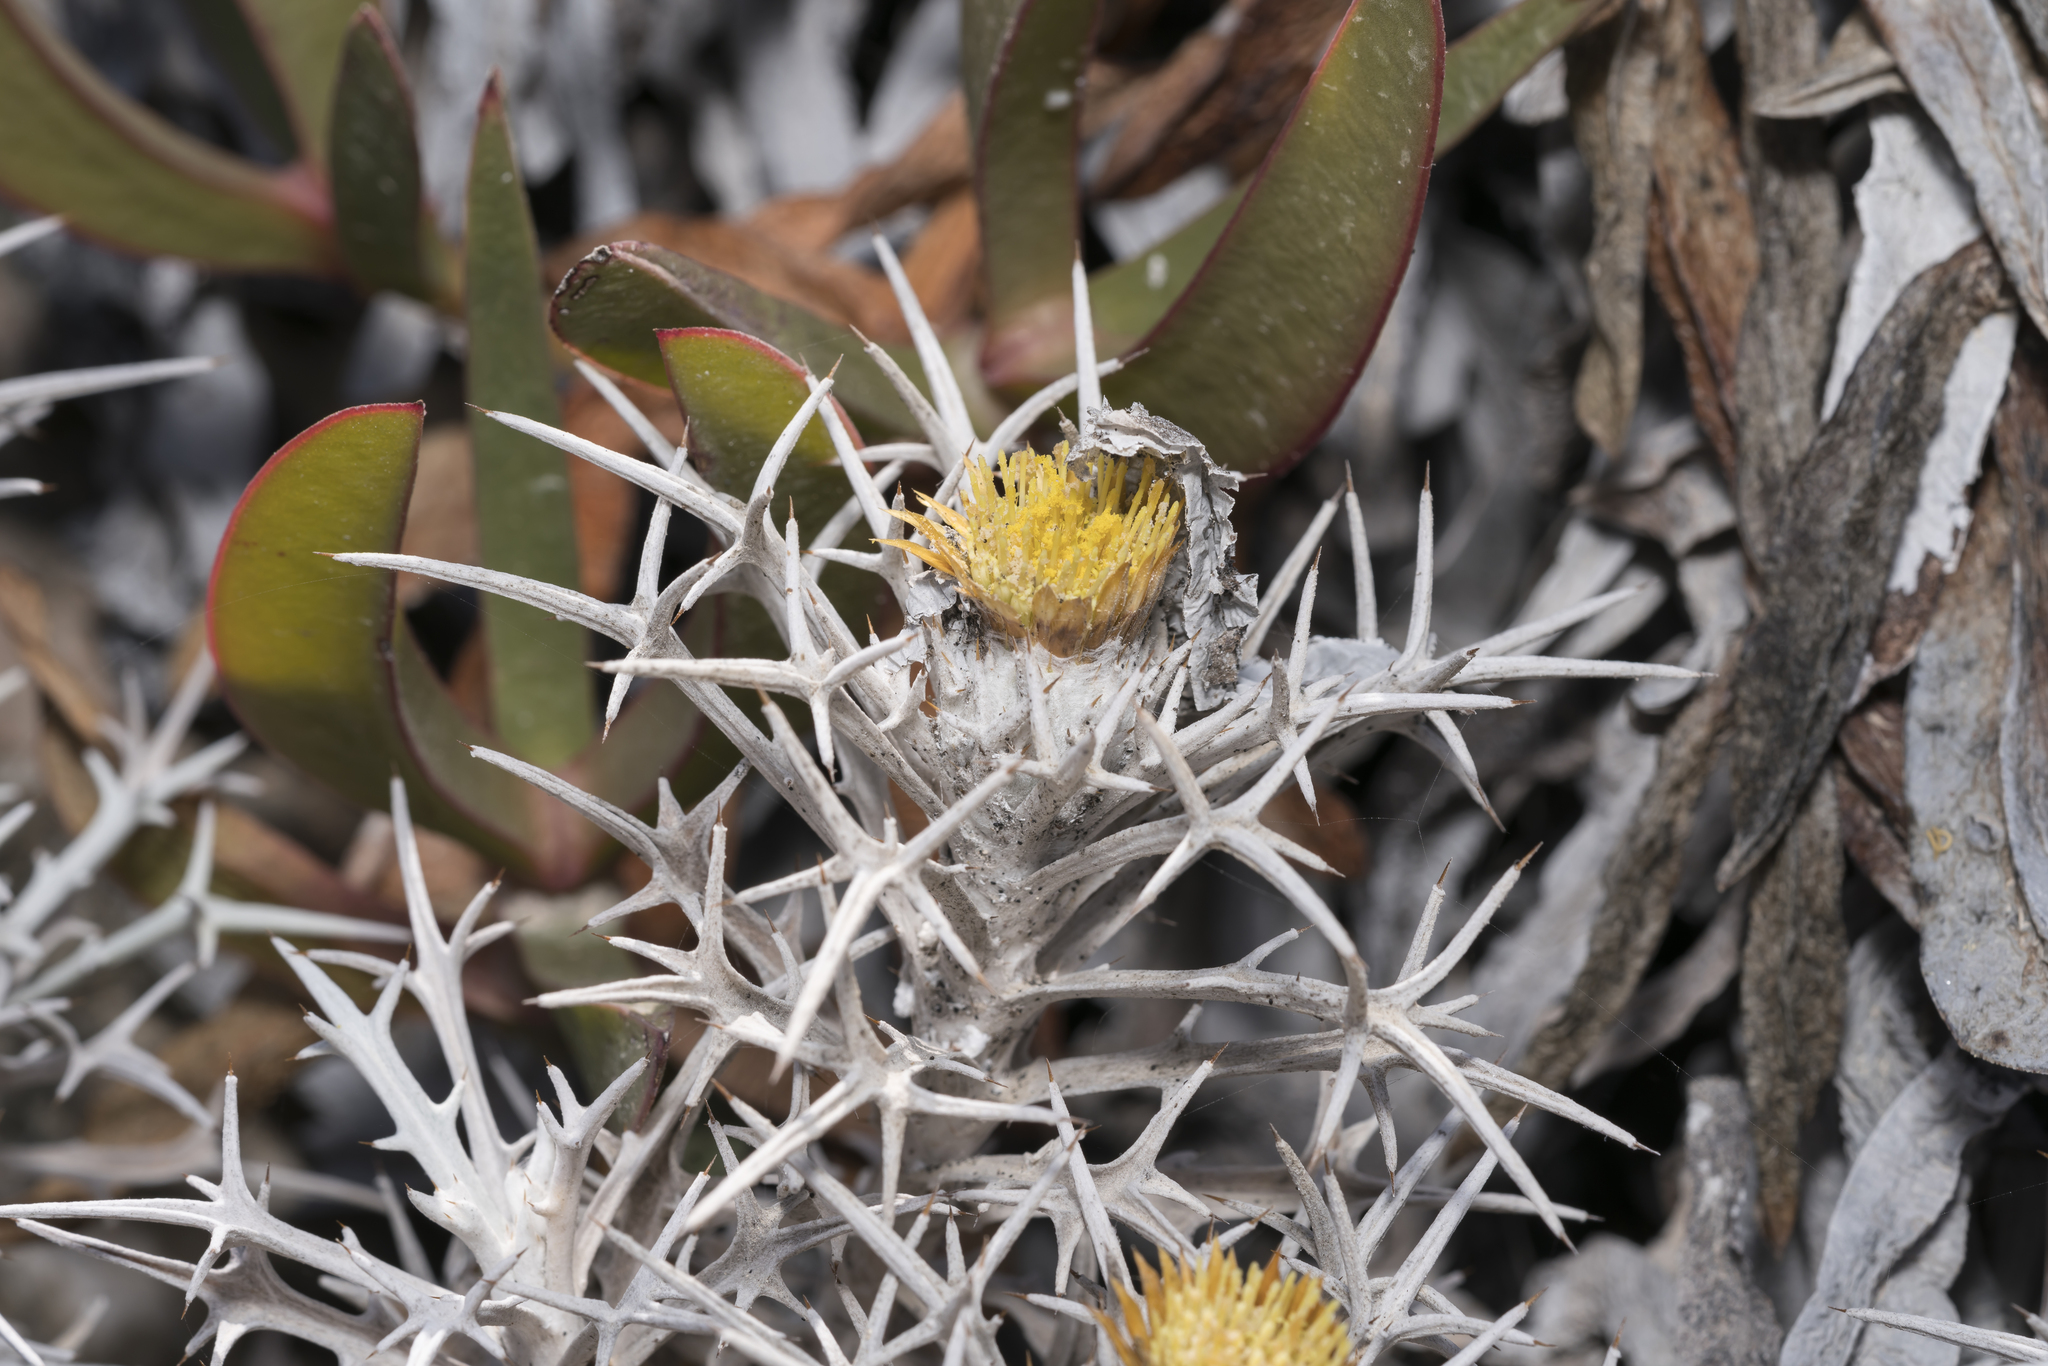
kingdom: Plantae
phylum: Tracheophyta
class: Magnoliopsida
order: Asterales
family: Asteraceae
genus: Carlina
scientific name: Carlina tragacanthifolia
